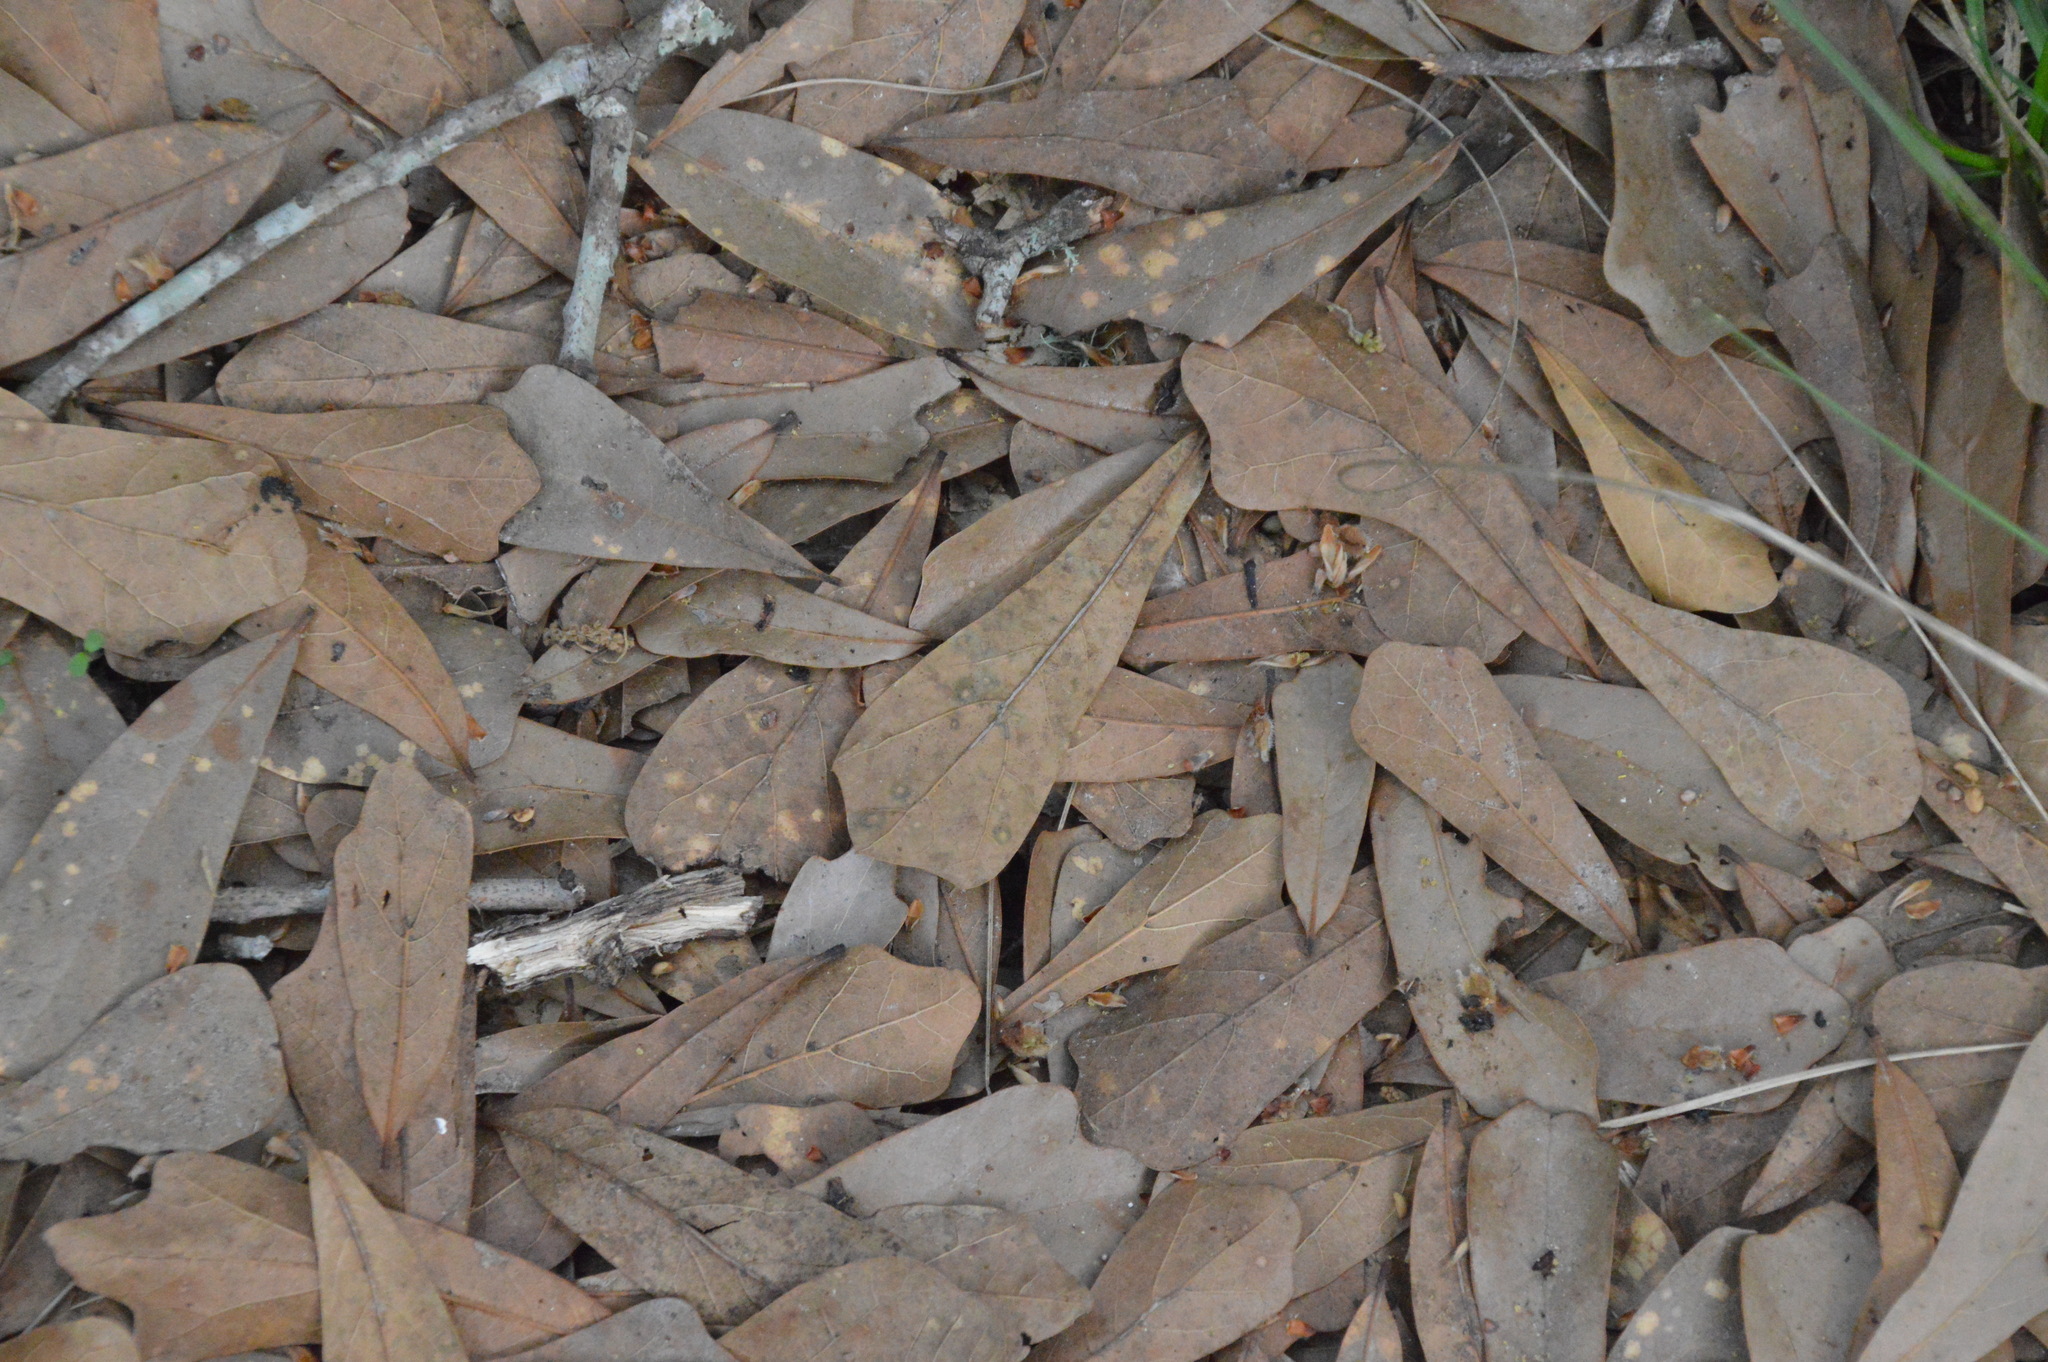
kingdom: Plantae
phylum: Tracheophyta
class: Magnoliopsida
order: Fagales
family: Fagaceae
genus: Quercus
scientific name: Quercus nigra
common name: Water oak
